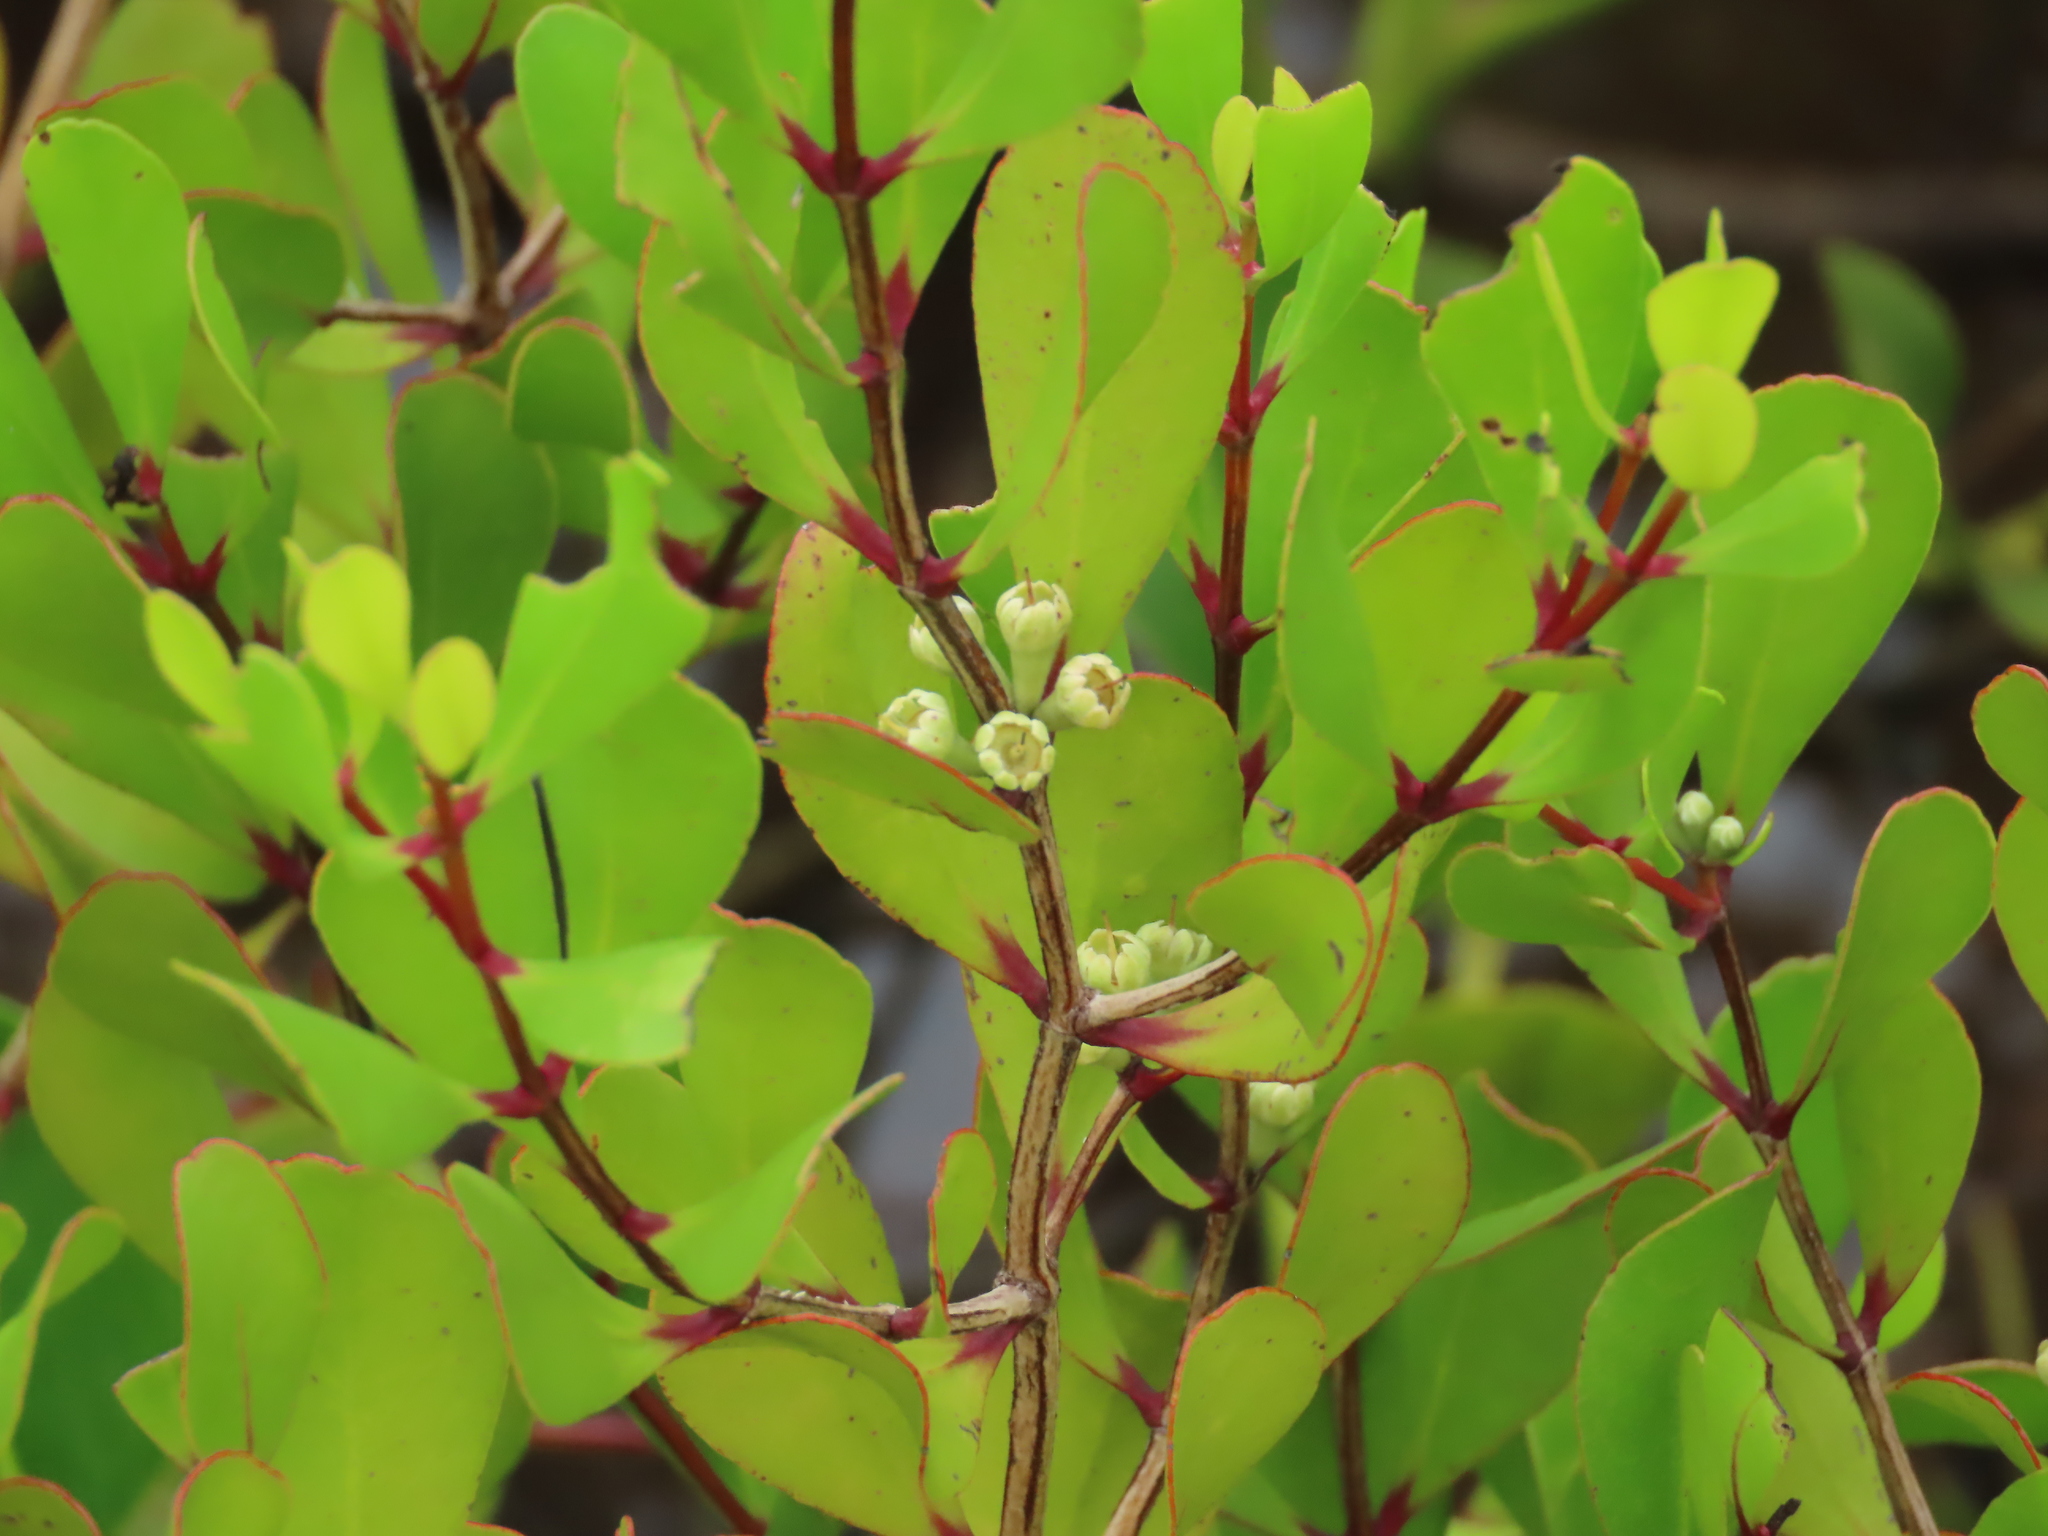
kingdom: Plantae
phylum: Tracheophyta
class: Magnoliopsida
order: Myrtales
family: Myrtaceae
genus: Osbornia
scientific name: Osbornia octodonta
